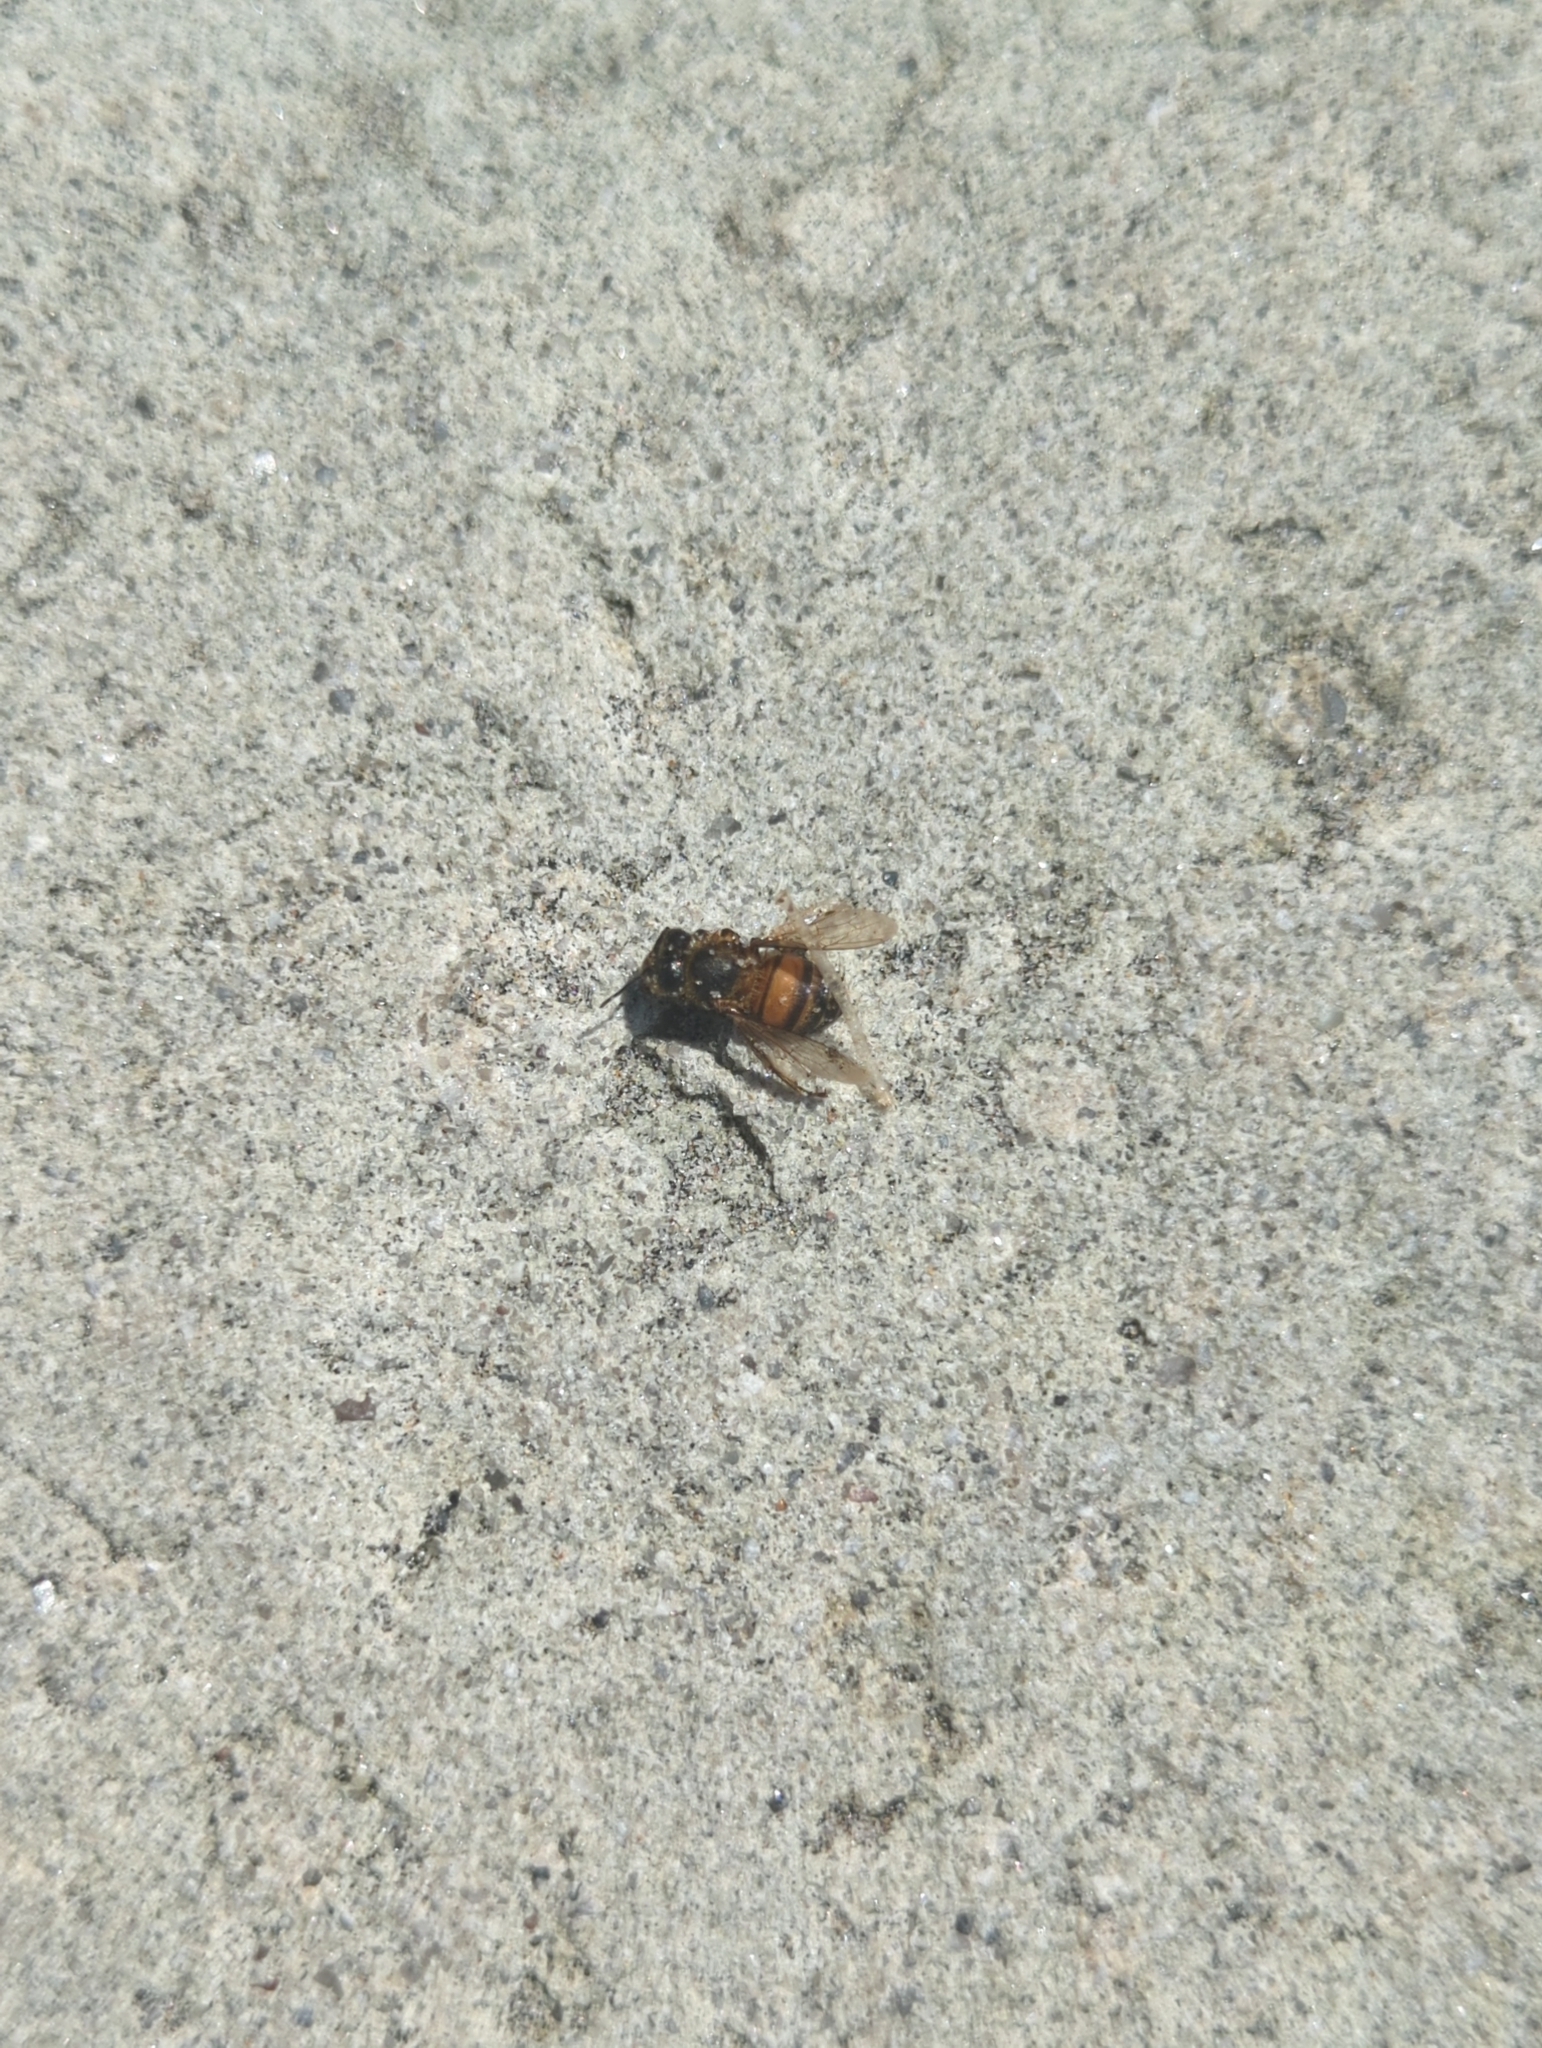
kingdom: Animalia
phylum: Arthropoda
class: Insecta
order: Hymenoptera
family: Apidae
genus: Apis
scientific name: Apis mellifera
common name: Honey bee
